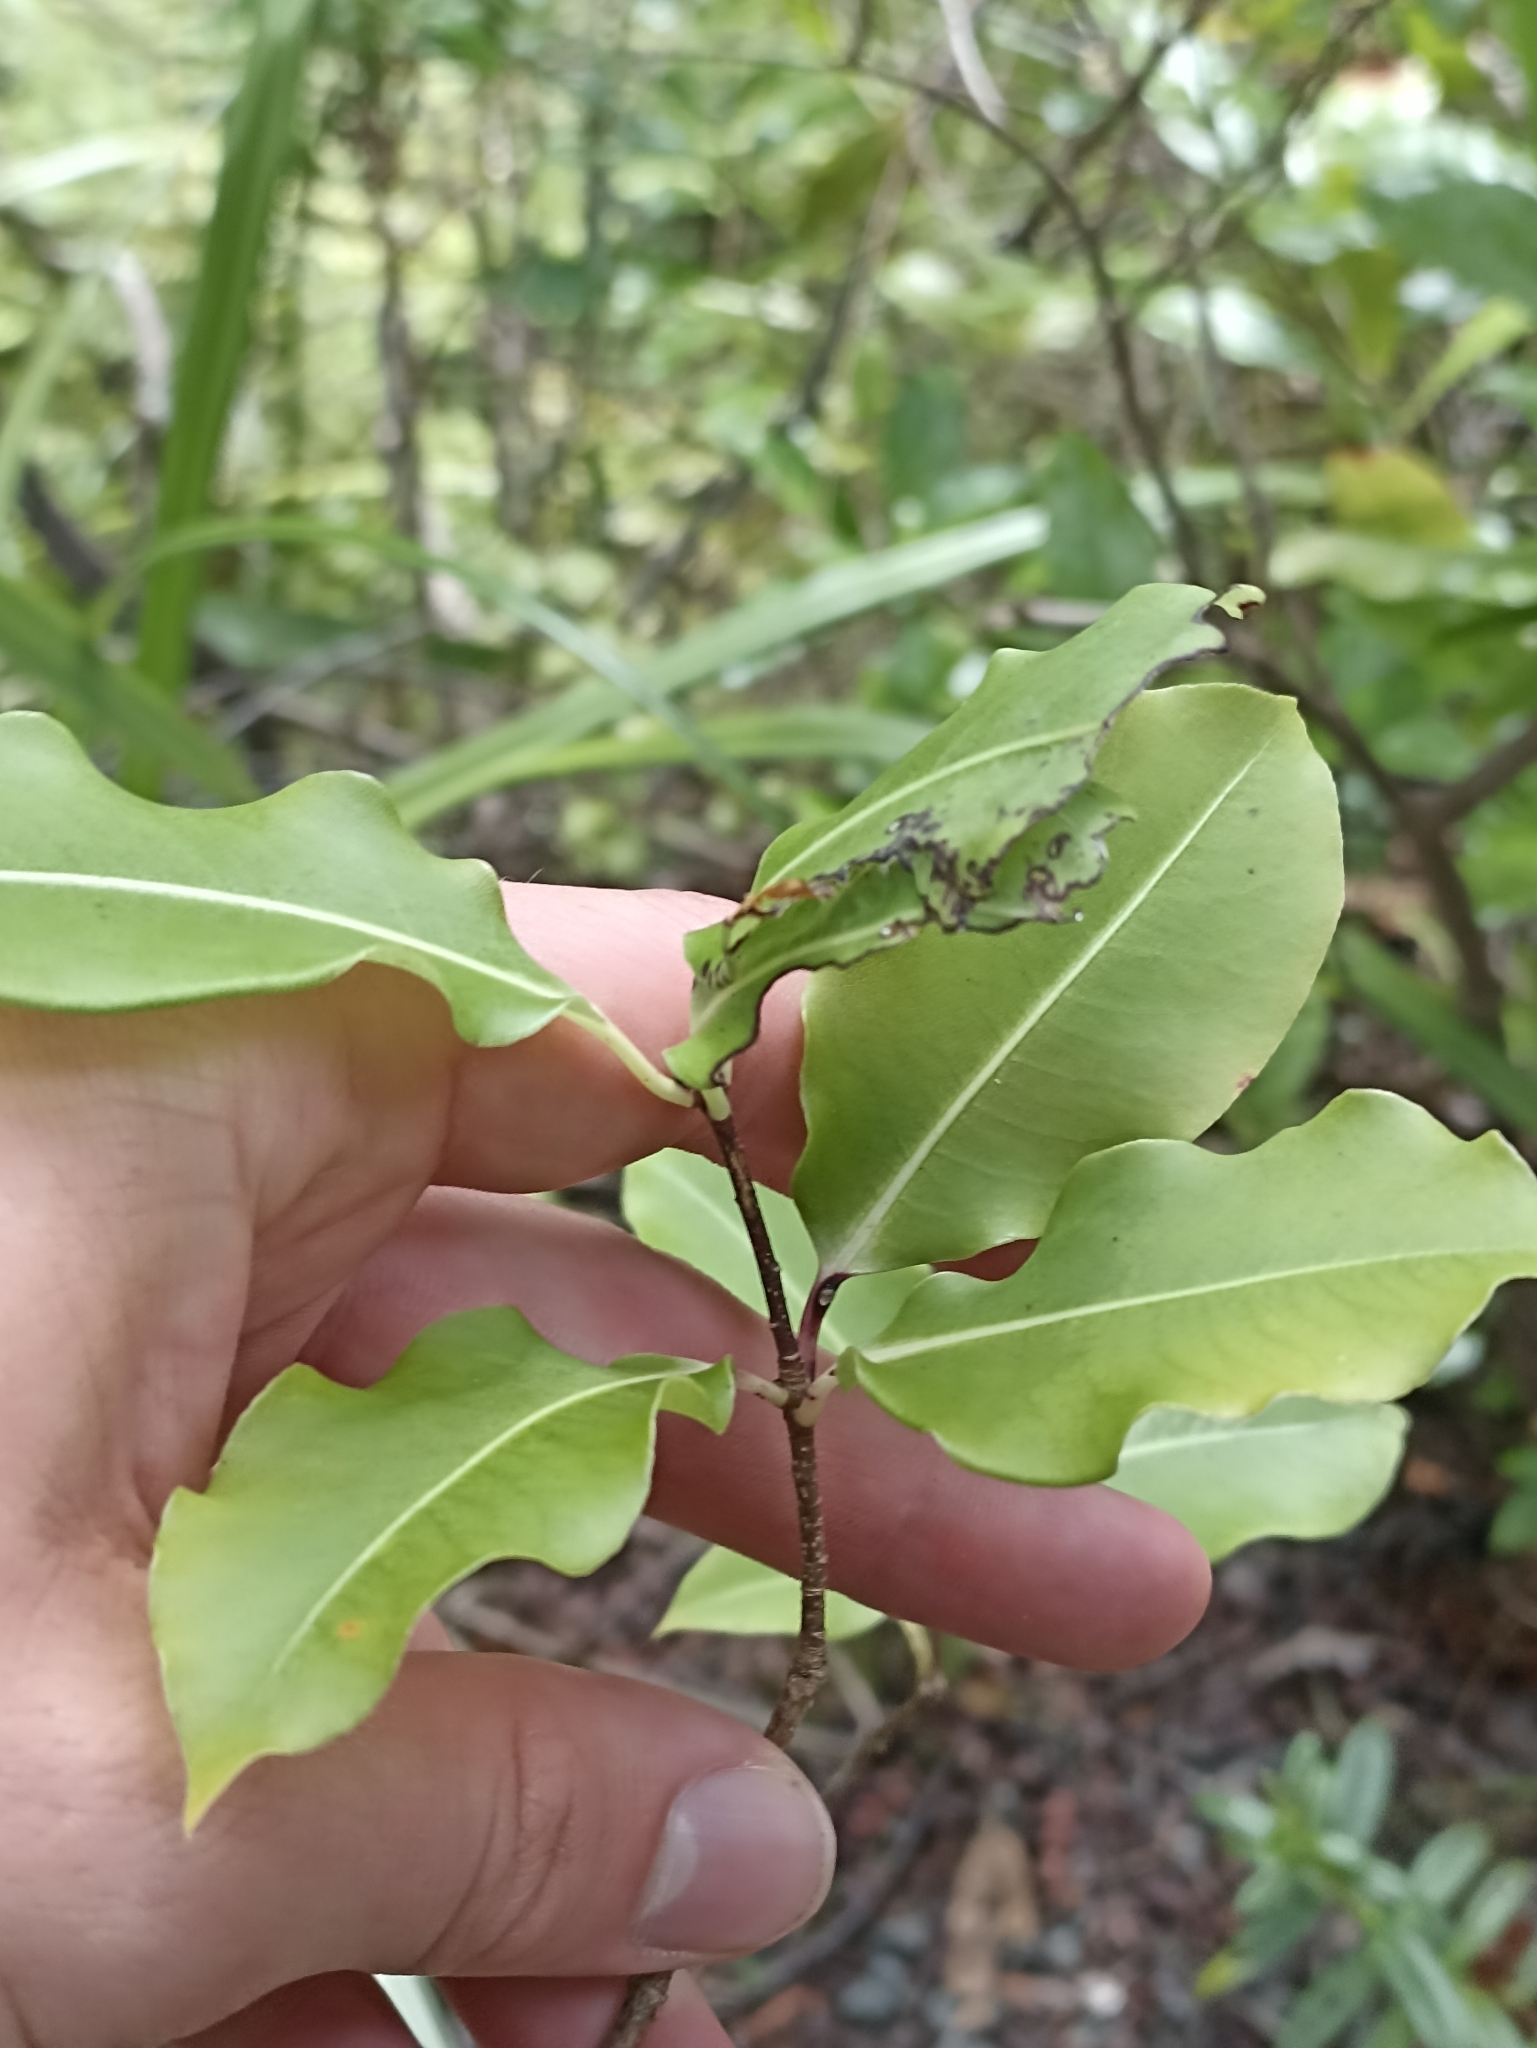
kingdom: Plantae
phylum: Tracheophyta
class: Magnoliopsida
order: Apiales
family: Pittosporaceae
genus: Pittosporum
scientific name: Pittosporum eugenioides
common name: Lemonwood
